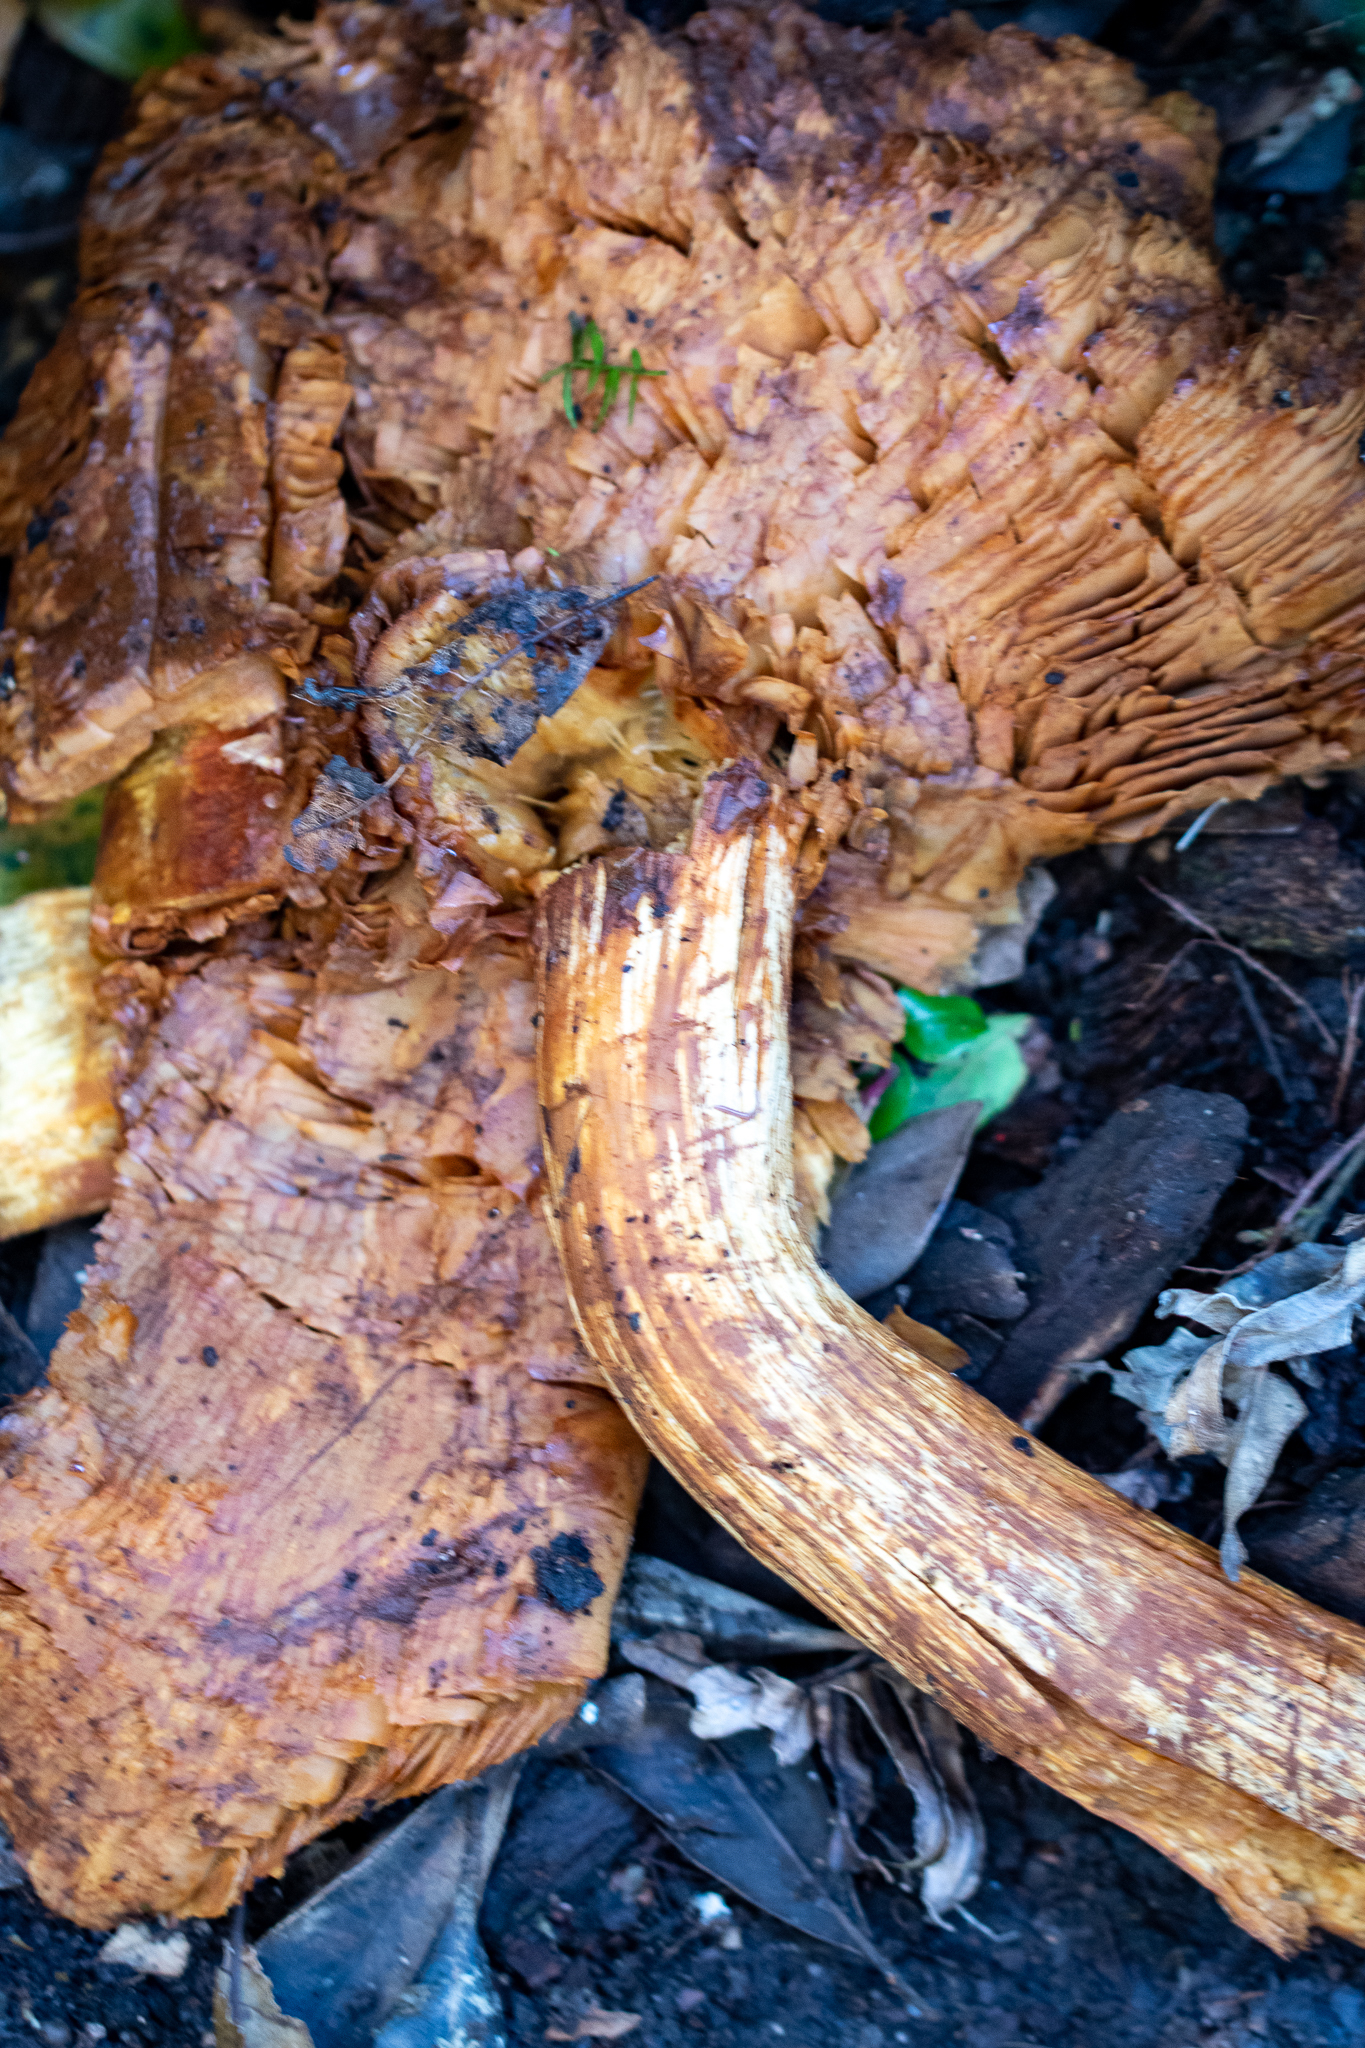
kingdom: Fungi
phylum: Basidiomycota
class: Agaricomycetes
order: Agaricales
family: Hymenogastraceae
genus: Gymnopilus
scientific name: Gymnopilus junonius
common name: Spectacular rustgill
